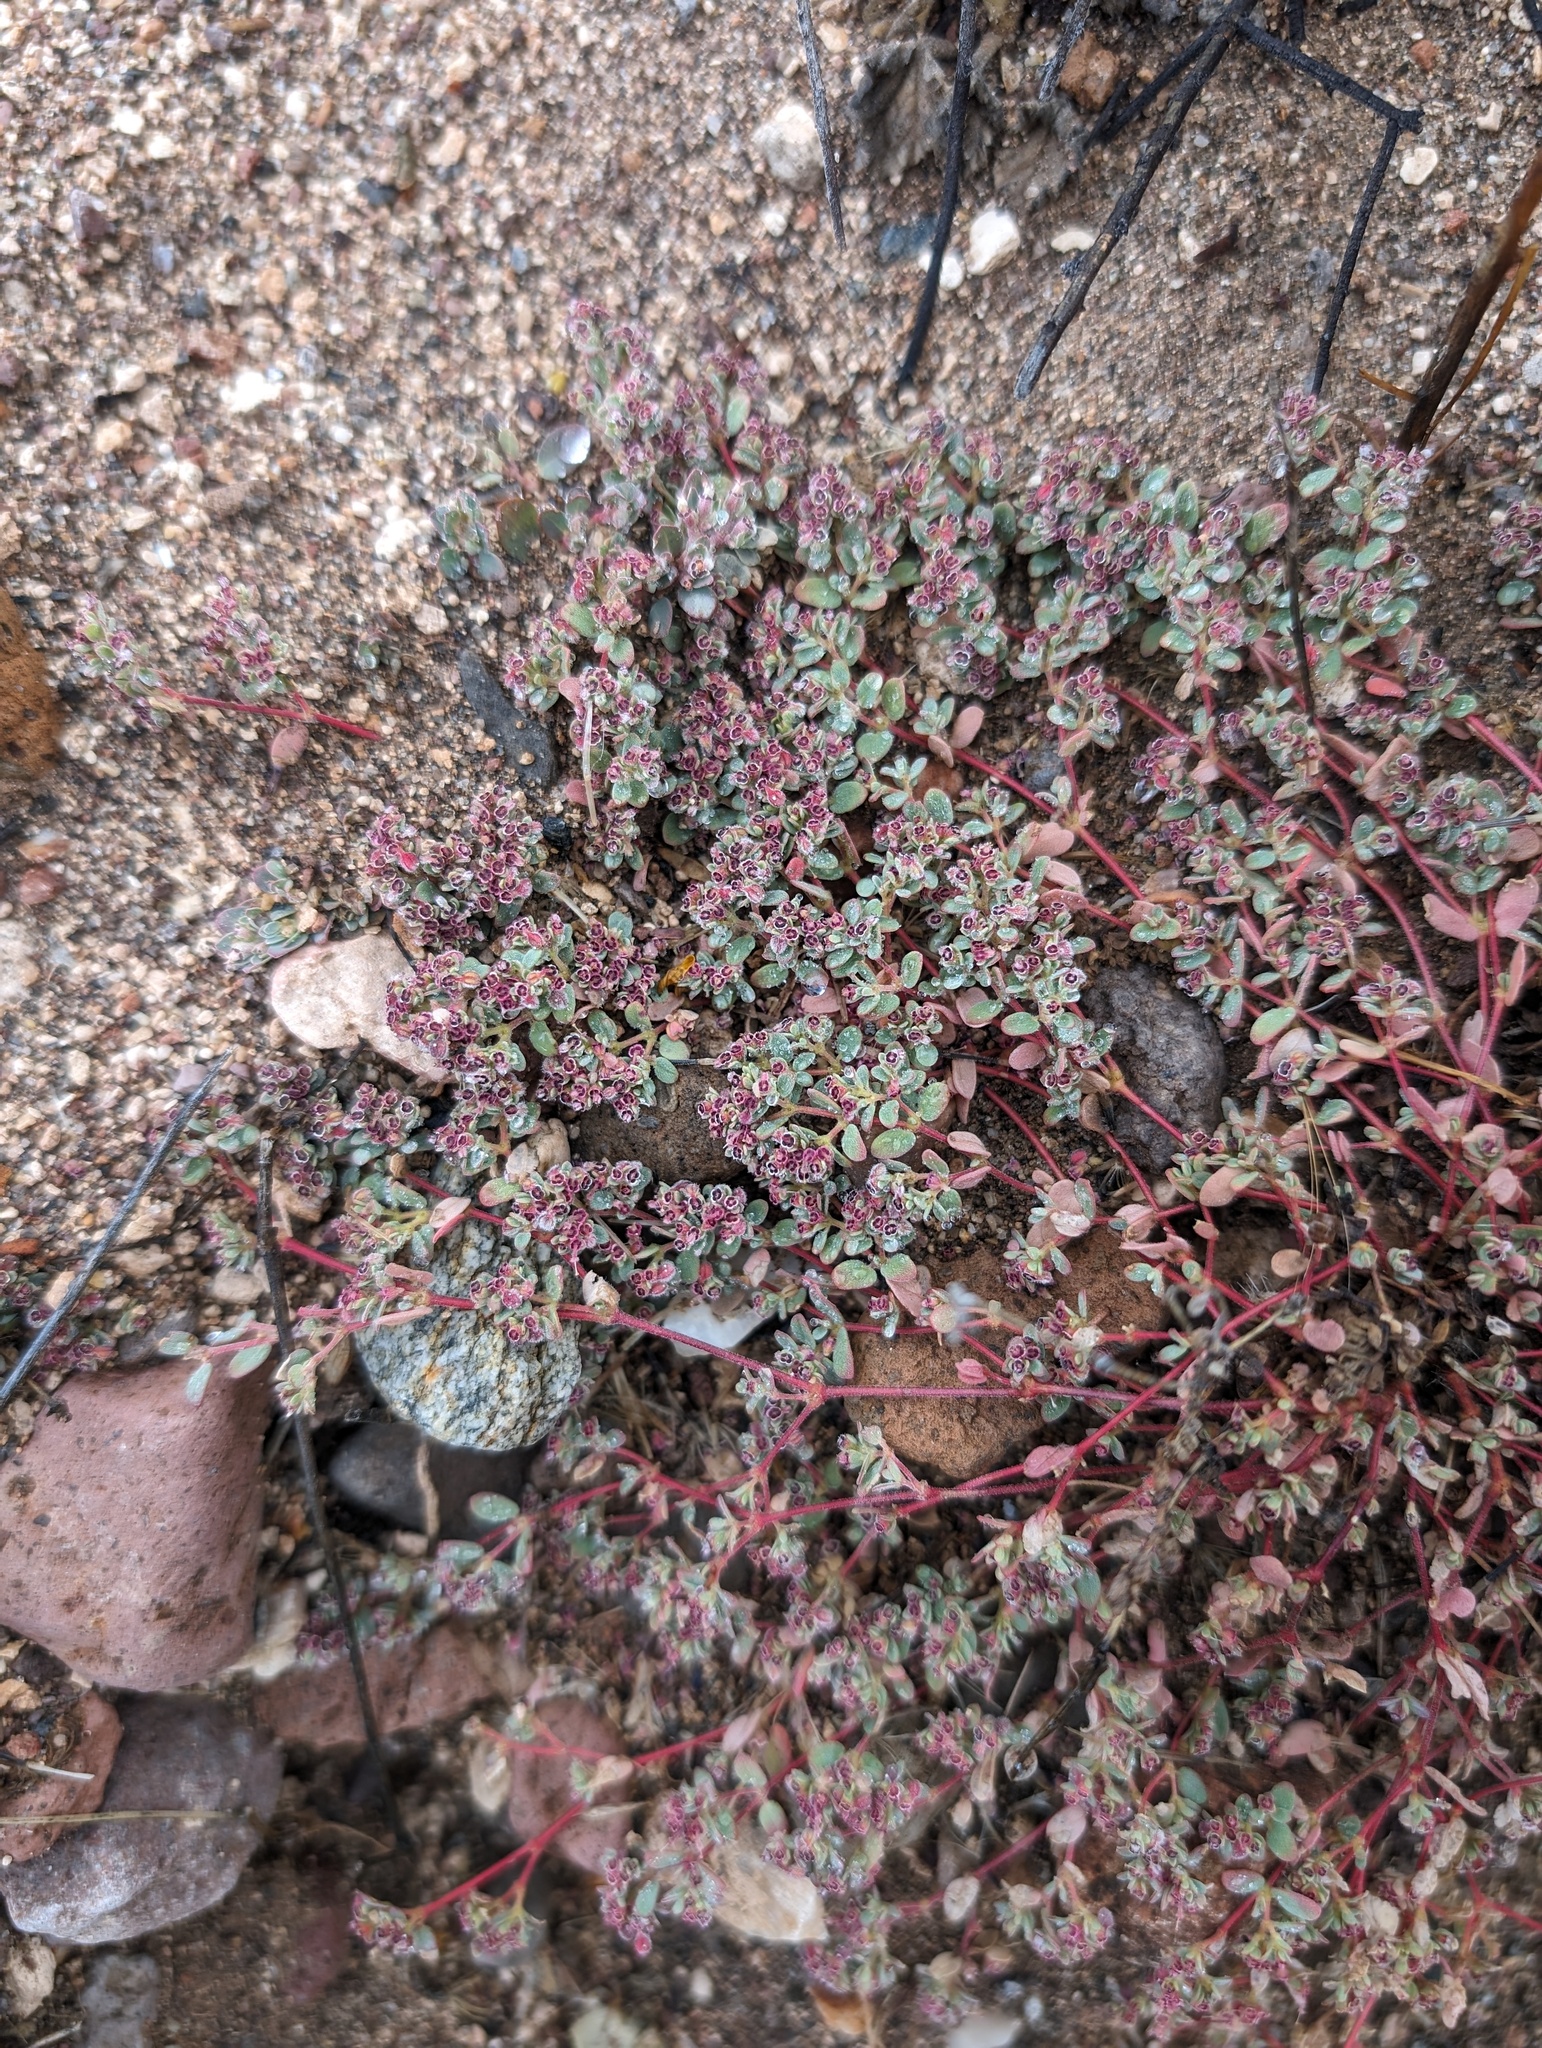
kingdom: Plantae
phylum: Tracheophyta
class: Magnoliopsida
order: Malpighiales
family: Euphorbiaceae
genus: Euphorbia
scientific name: Euphorbia melanadenia
